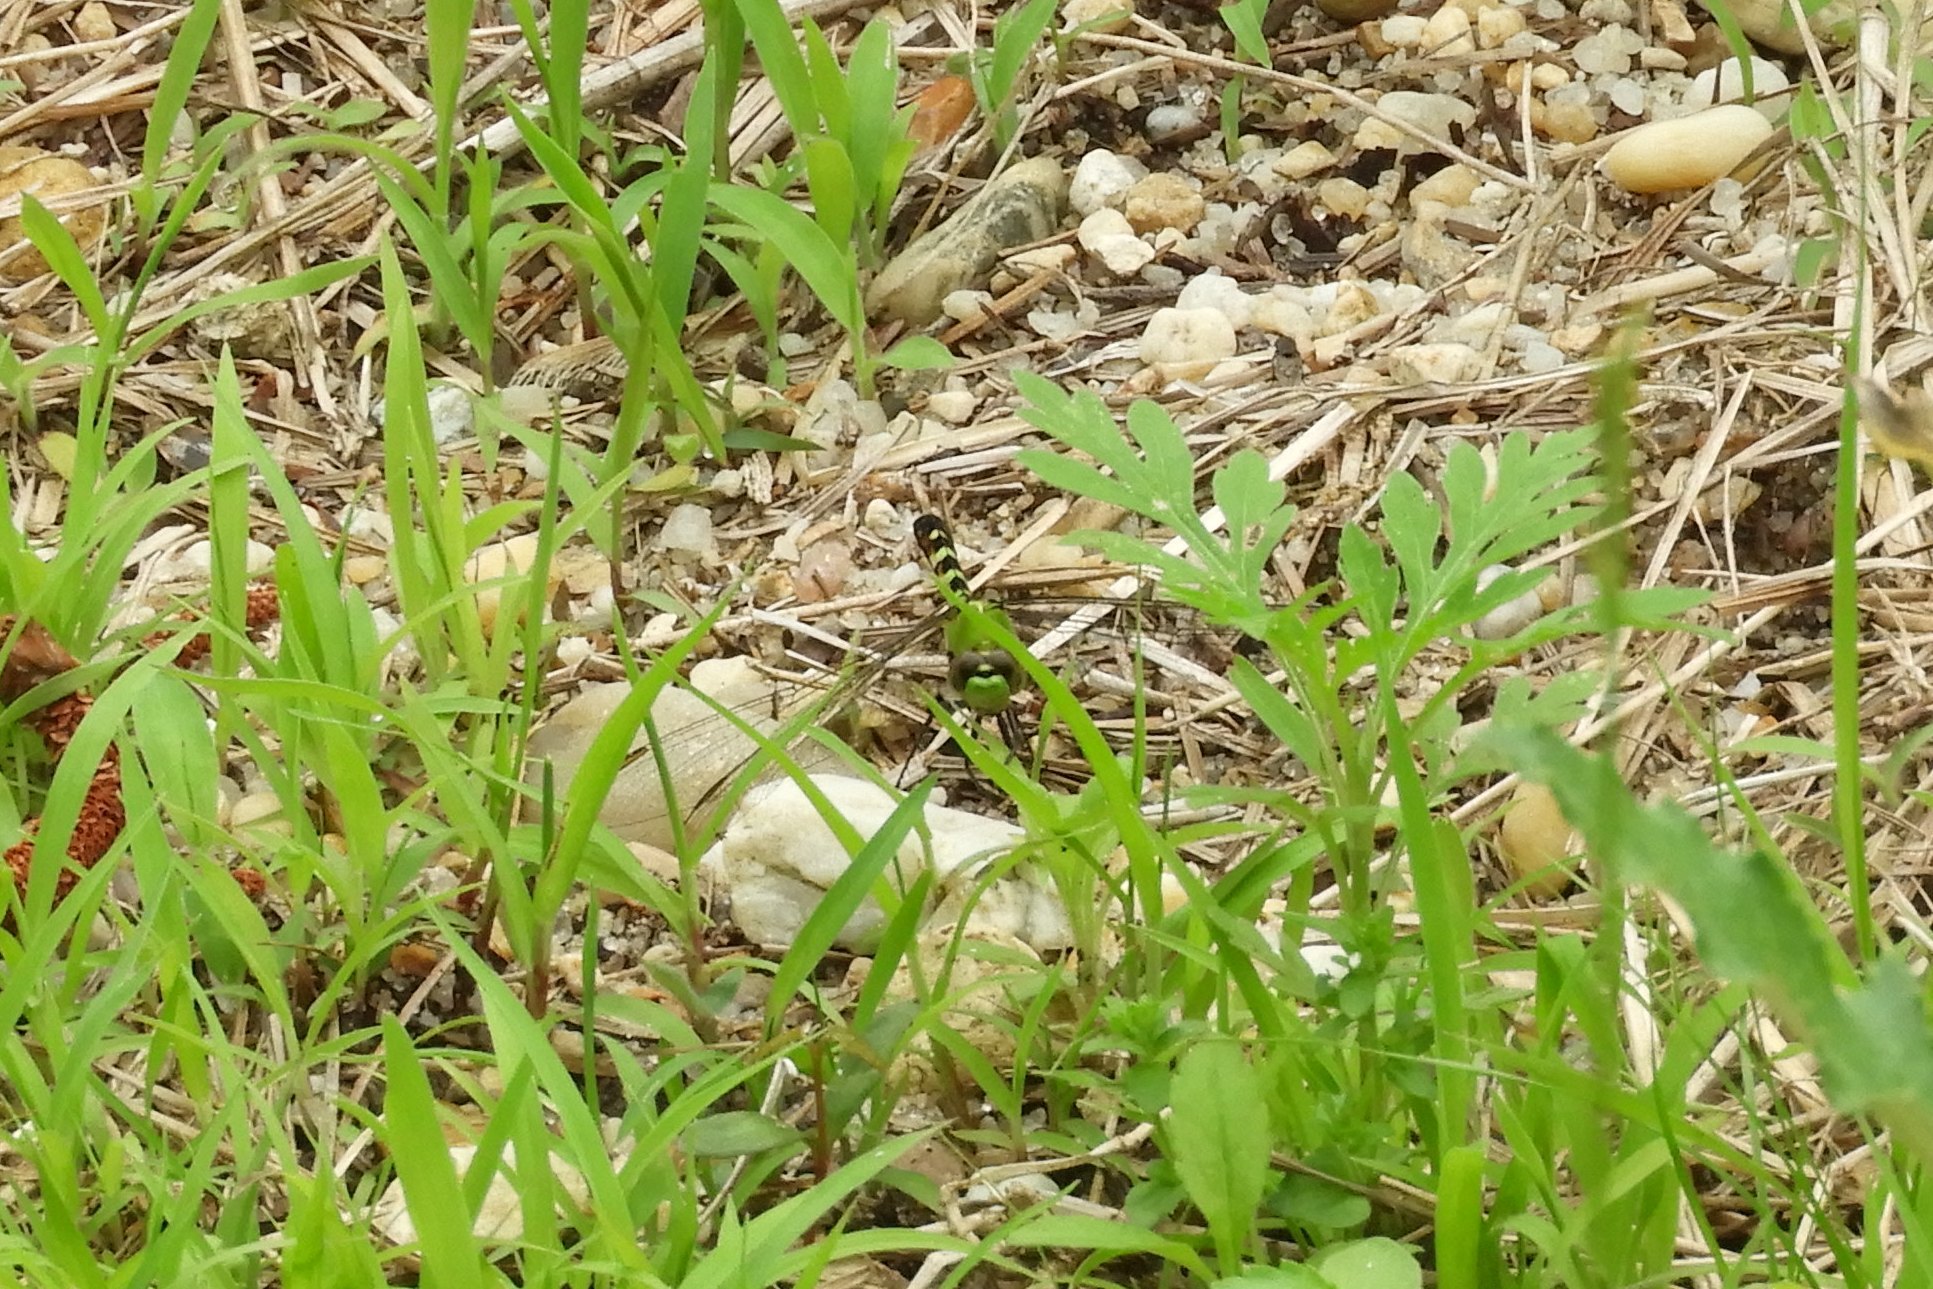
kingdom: Animalia
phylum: Arthropoda
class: Insecta
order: Odonata
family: Libellulidae
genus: Erythemis
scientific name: Erythemis simplicicollis
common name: Eastern pondhawk
